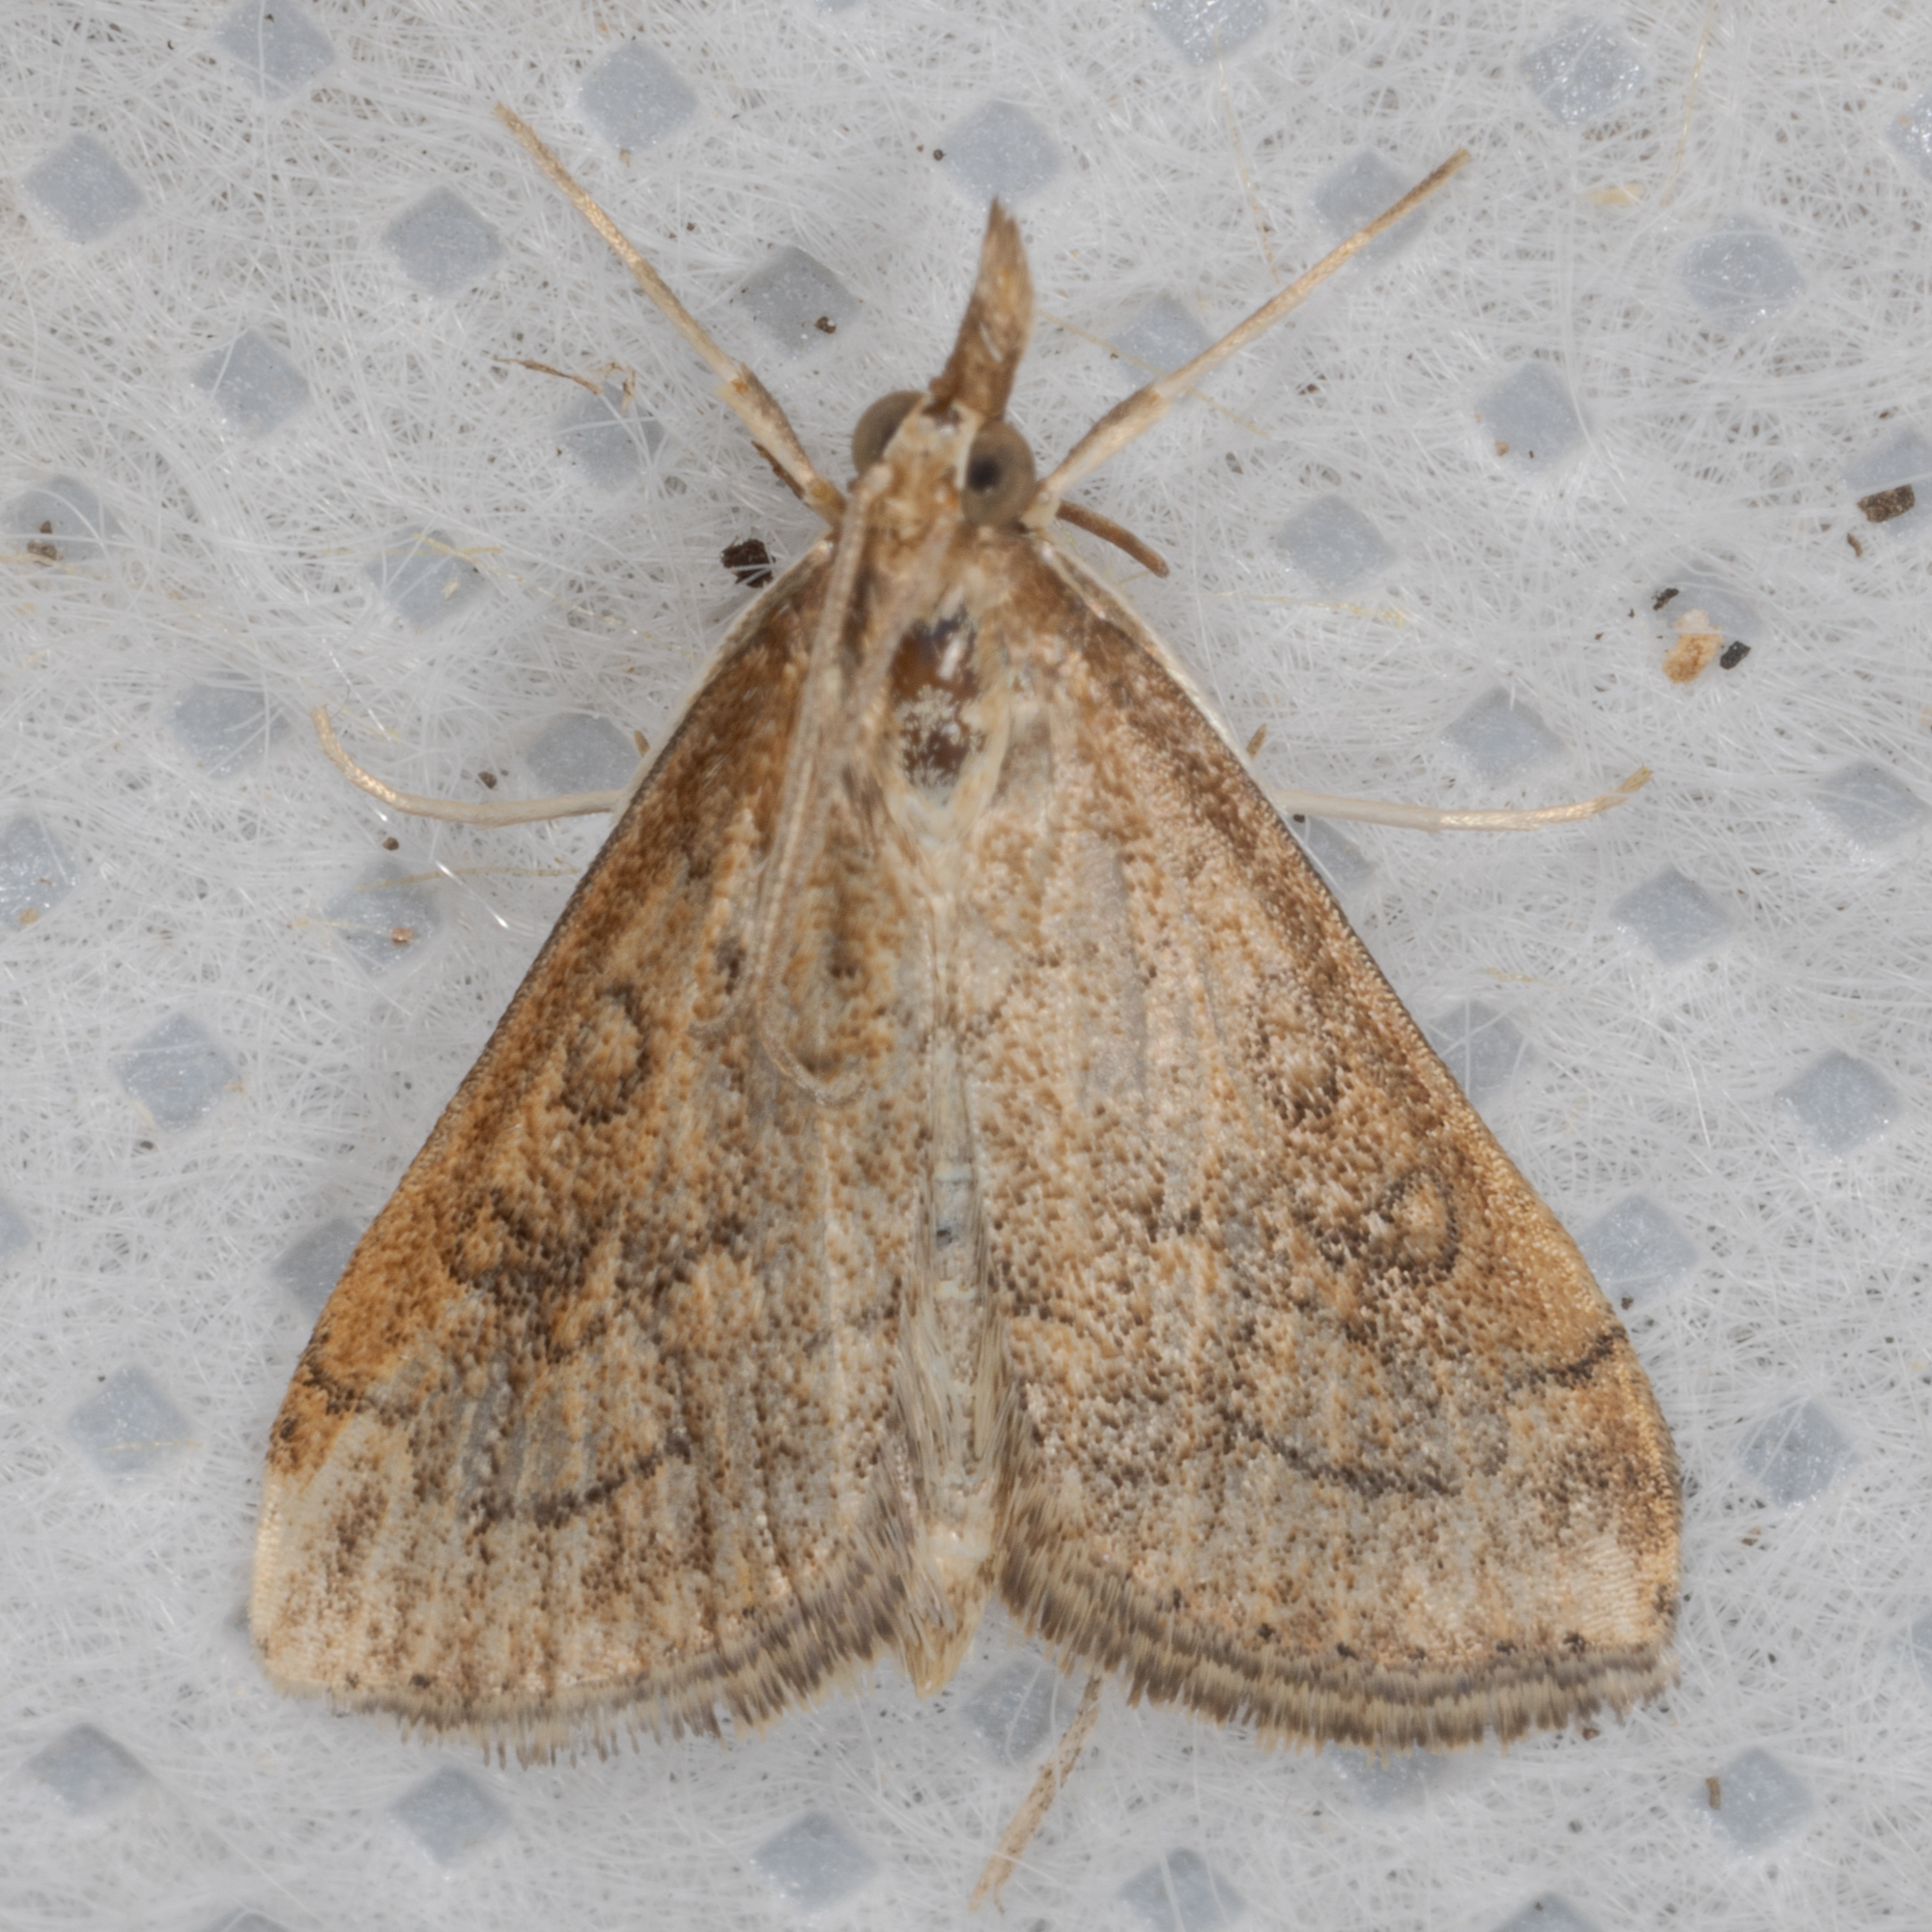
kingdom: Animalia
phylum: Arthropoda
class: Insecta
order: Lepidoptera
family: Crambidae
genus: Udea
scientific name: Udea rubigalis
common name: Celery leaftier moth
